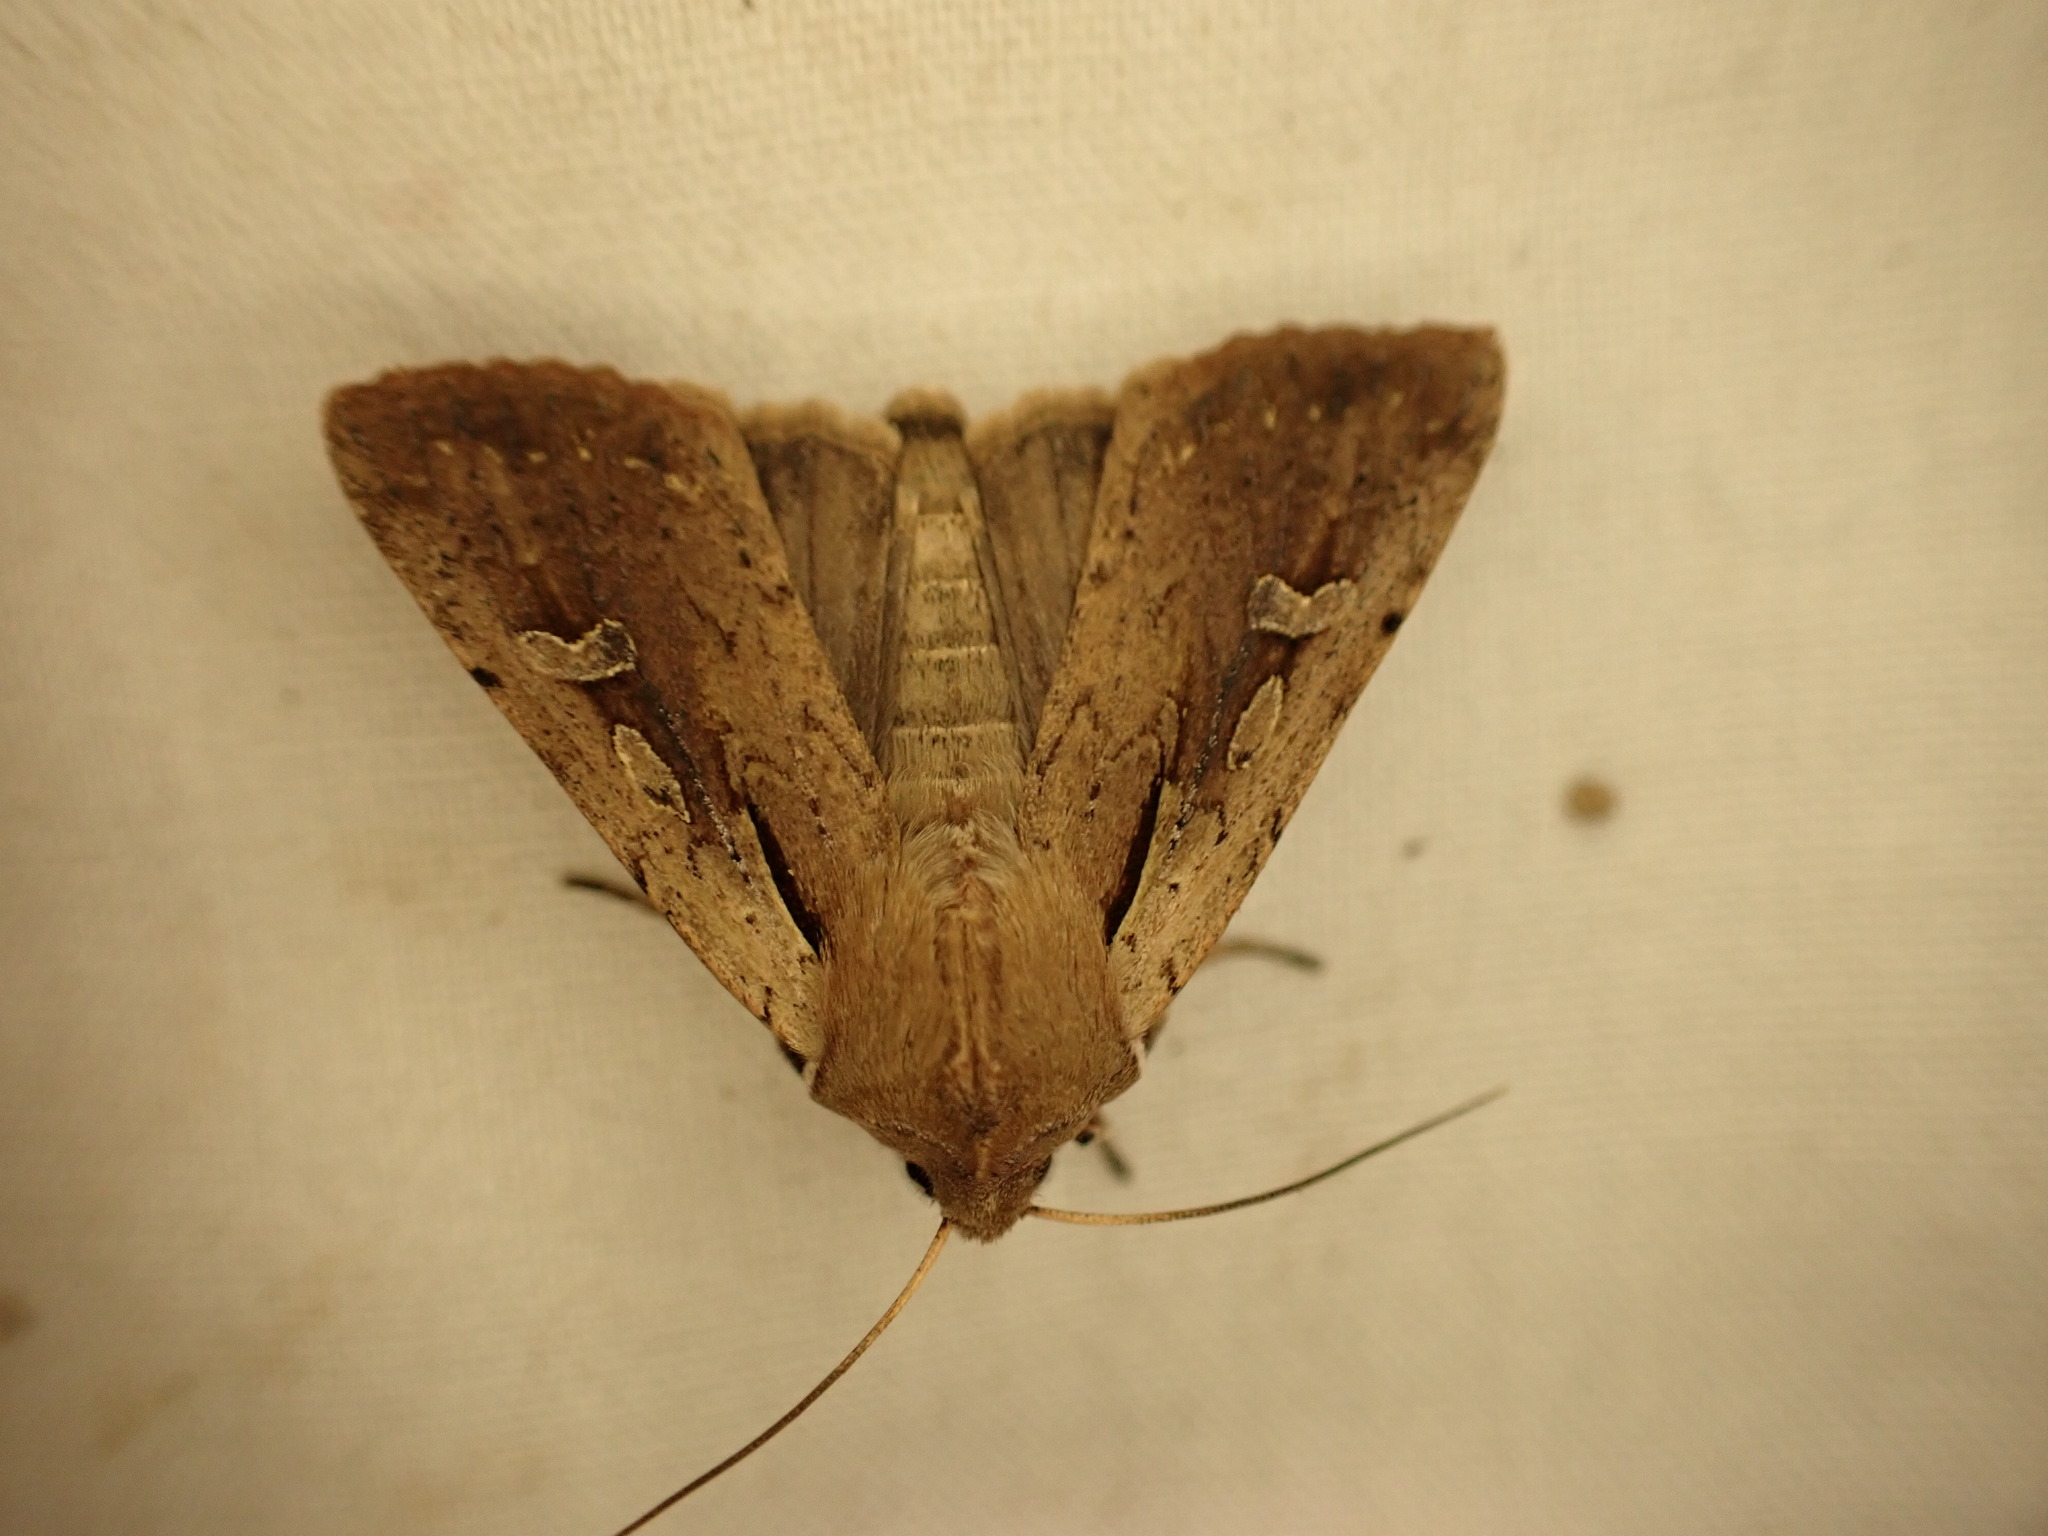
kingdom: Animalia
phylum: Arthropoda
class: Insecta
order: Lepidoptera
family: Noctuidae
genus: Ichneutica
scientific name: Ichneutica atristriga
